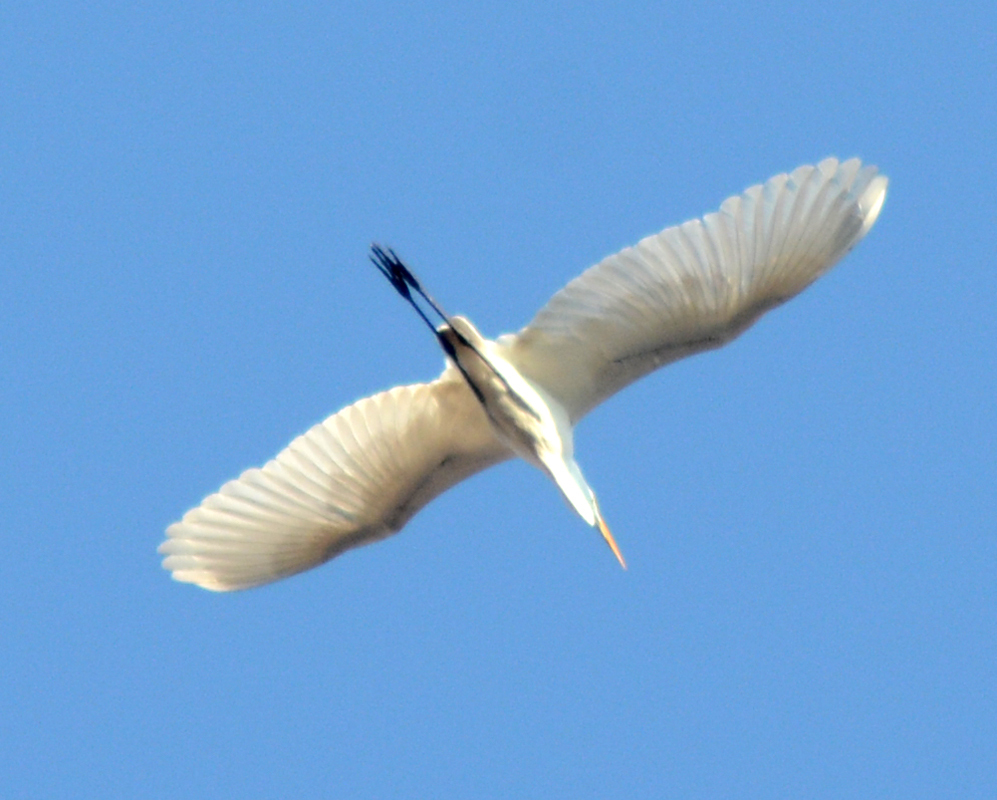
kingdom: Animalia
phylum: Chordata
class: Aves
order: Pelecaniformes
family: Ardeidae
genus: Ardea
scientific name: Ardea alba
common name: Great egret
